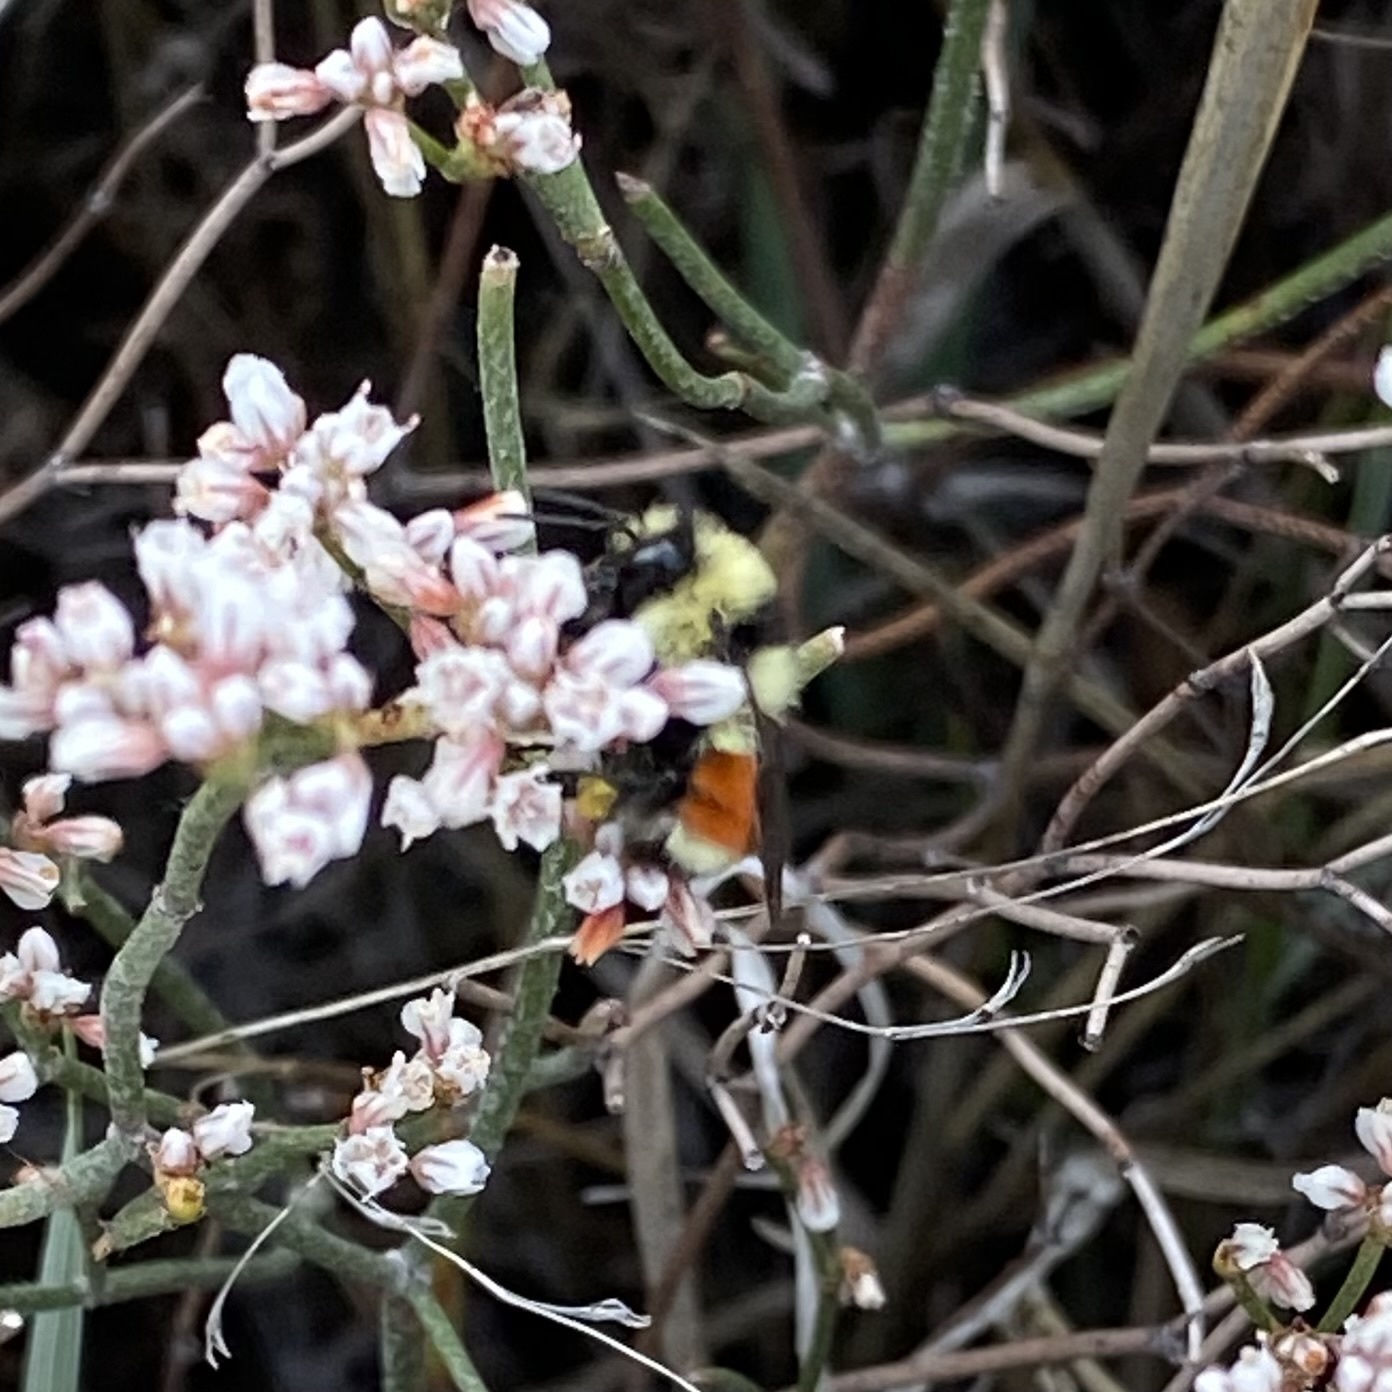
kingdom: Animalia
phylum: Arthropoda
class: Insecta
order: Hymenoptera
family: Apidae
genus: Bombus
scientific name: Bombus huntii
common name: Hunt bumble bee
